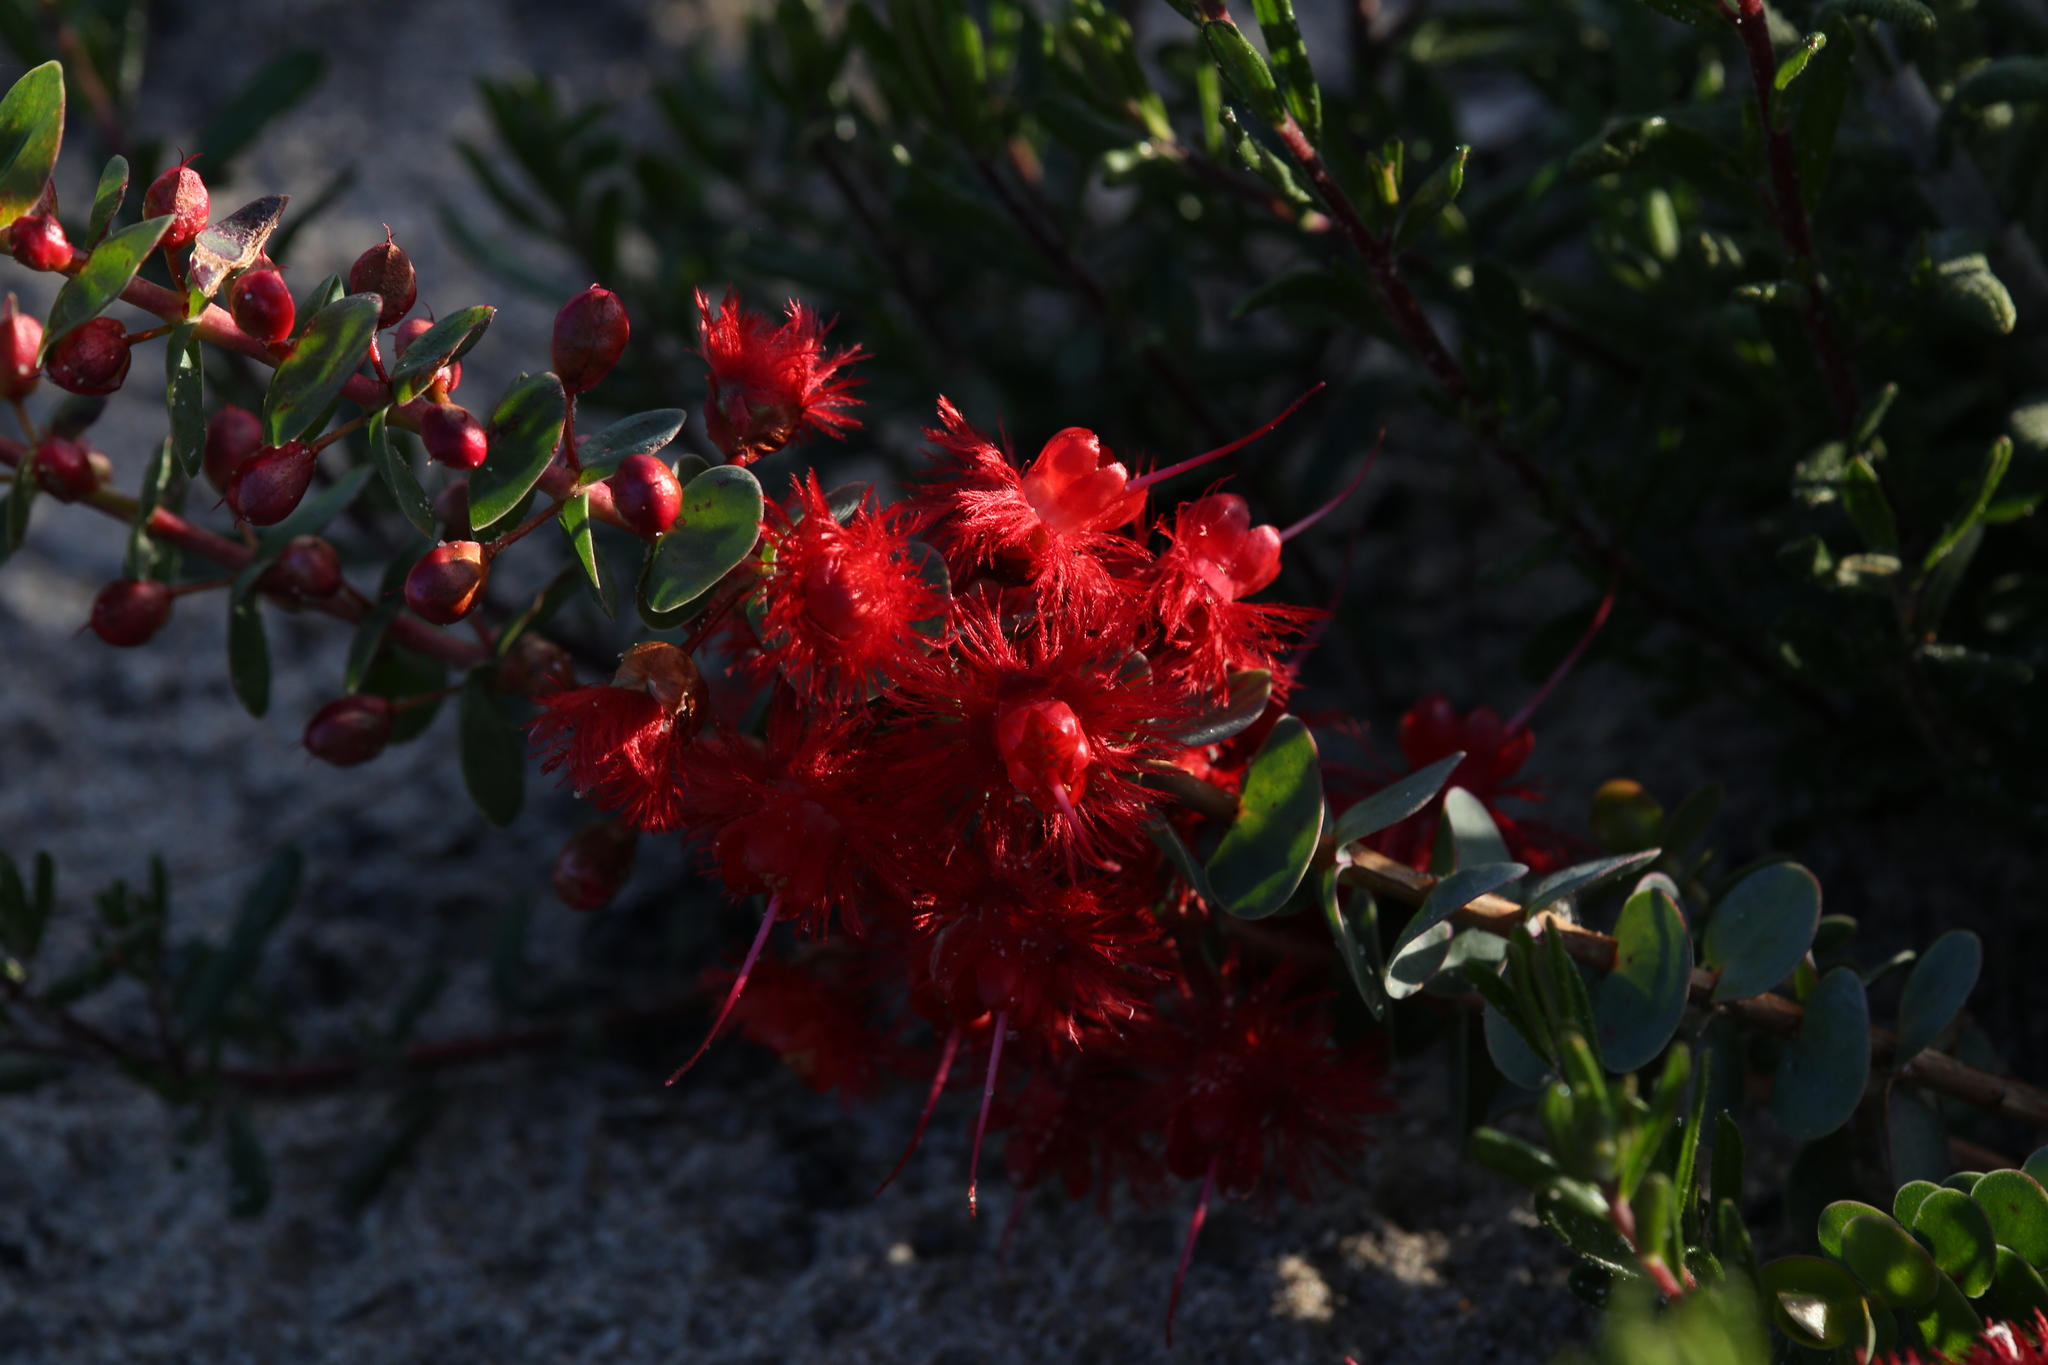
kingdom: Plantae
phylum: Tracheophyta
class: Magnoliopsida
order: Myrtales
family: Myrtaceae
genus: Verticordia
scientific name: Verticordia grandis
